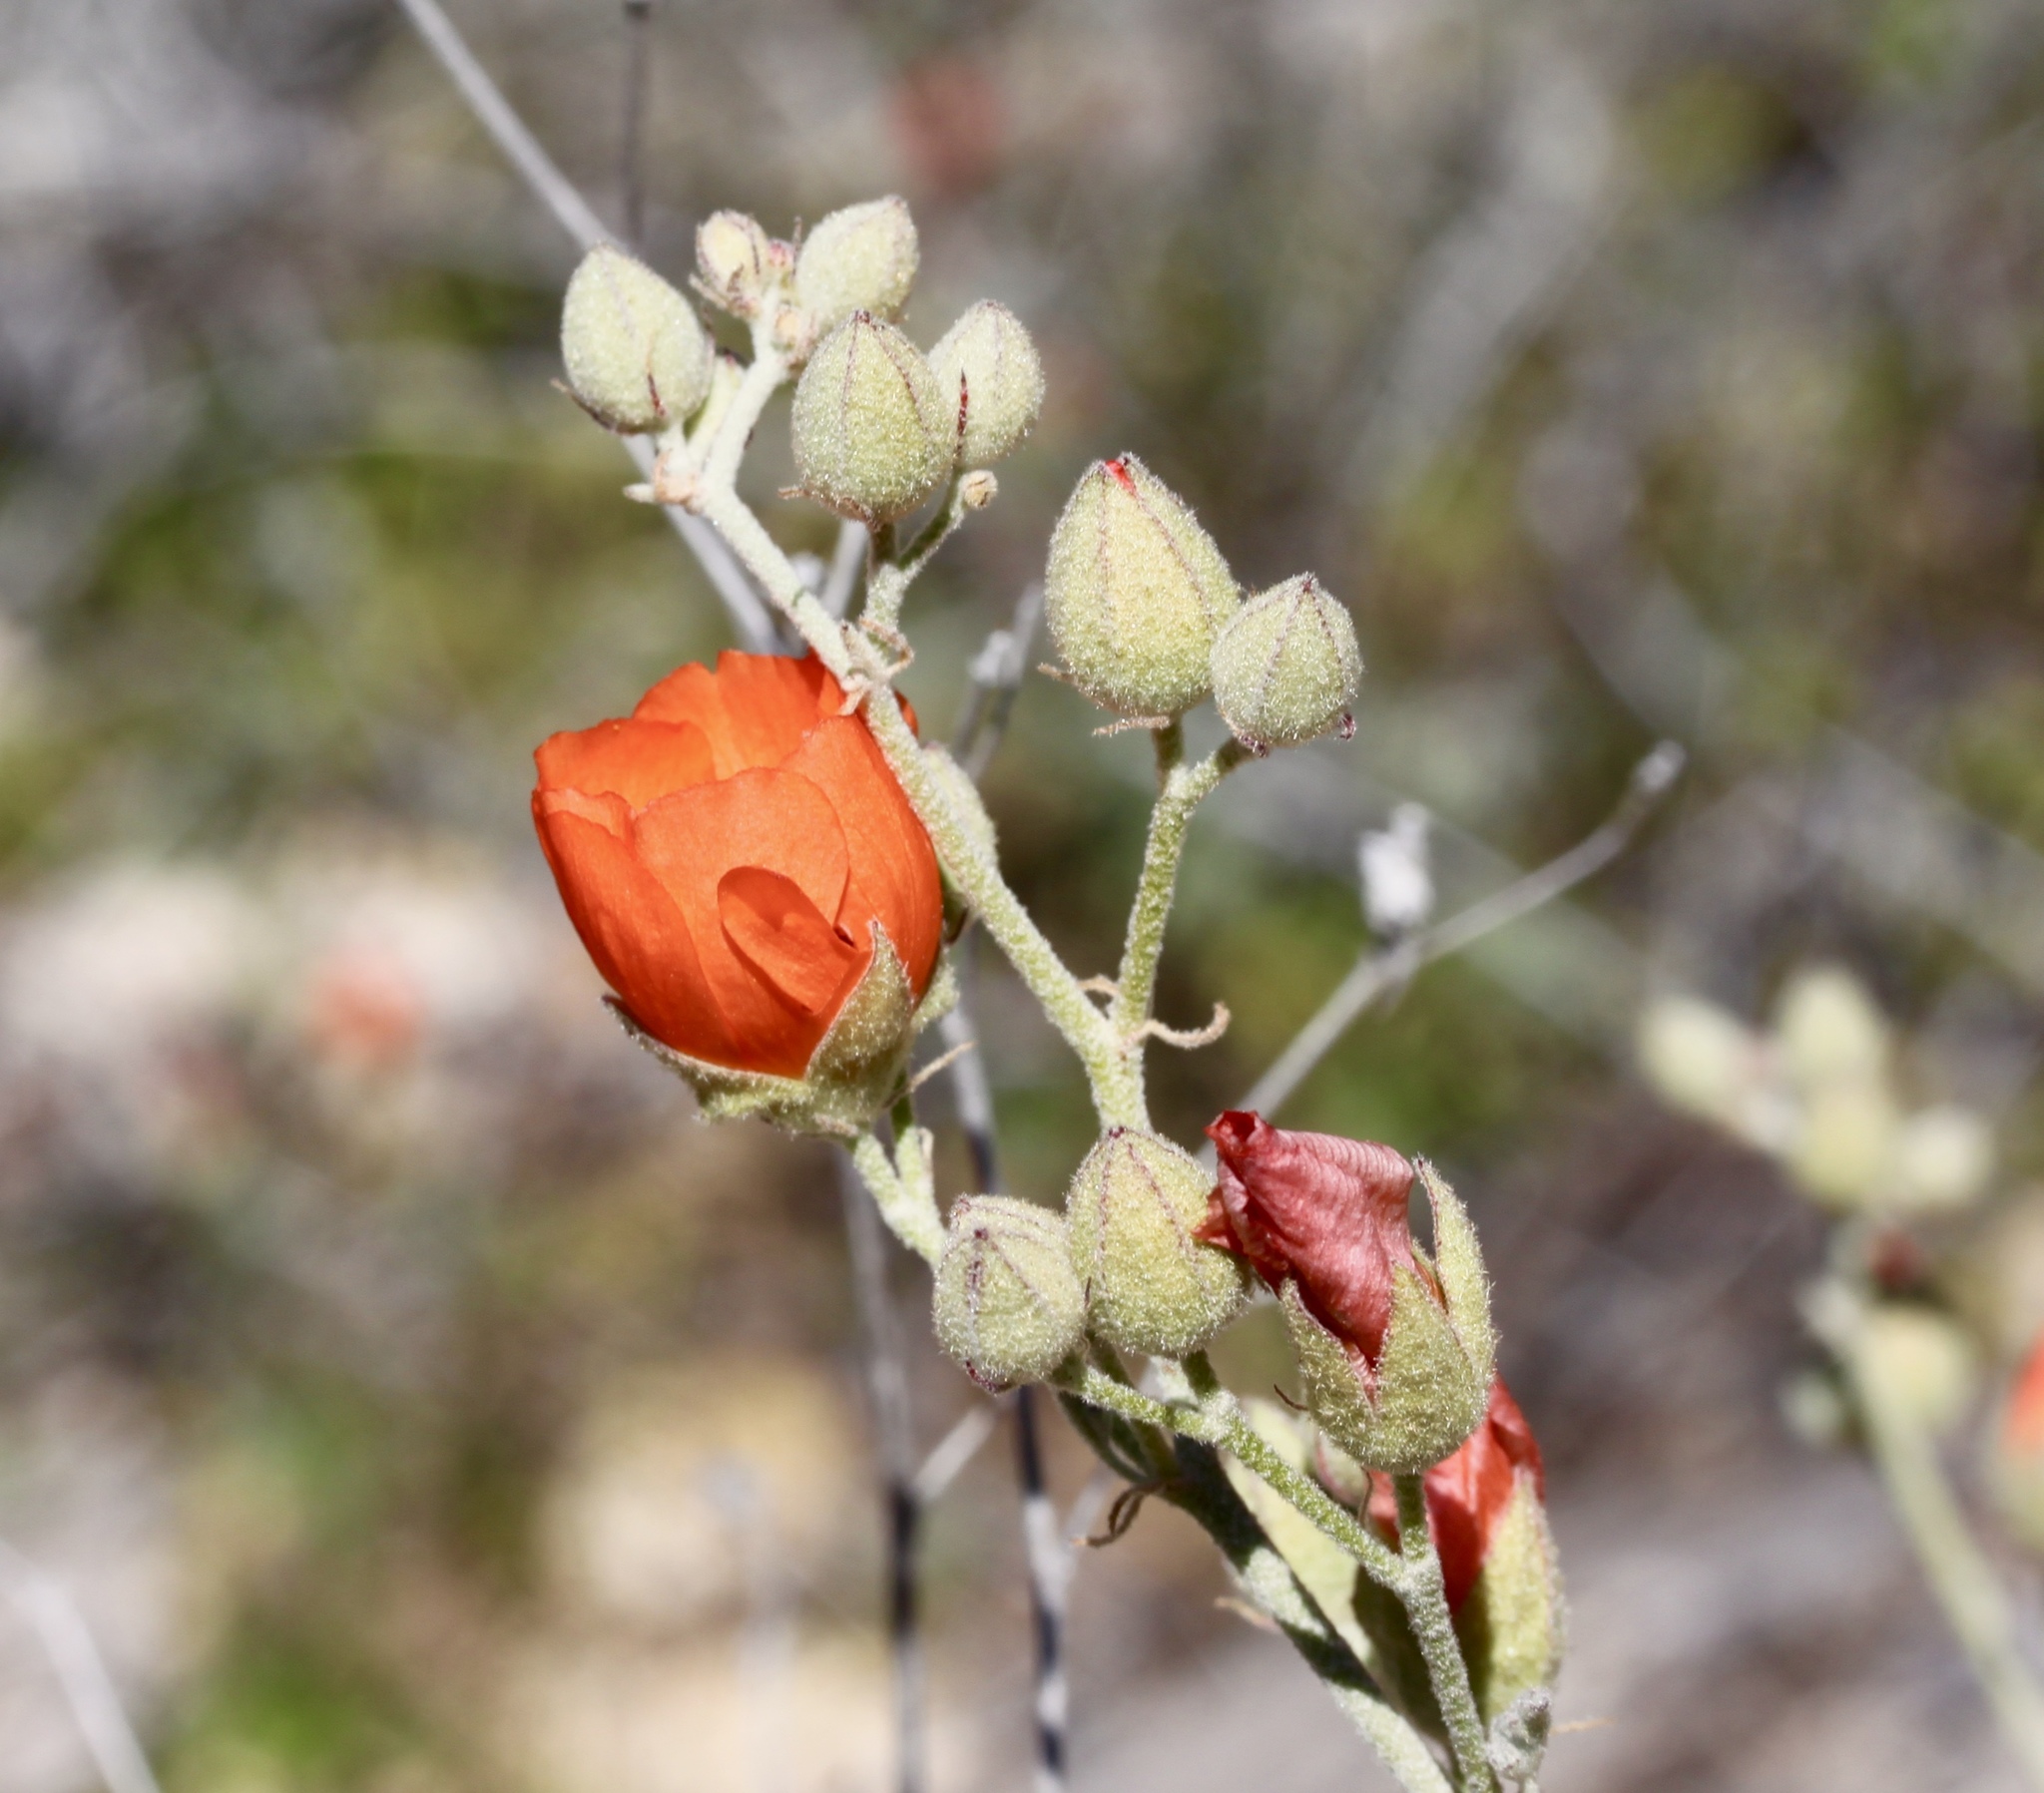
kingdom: Plantae
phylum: Tracheophyta
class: Magnoliopsida
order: Malvales
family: Malvaceae
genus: Sphaeralcea
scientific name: Sphaeralcea ambigua
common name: Apricot globe-mallow
